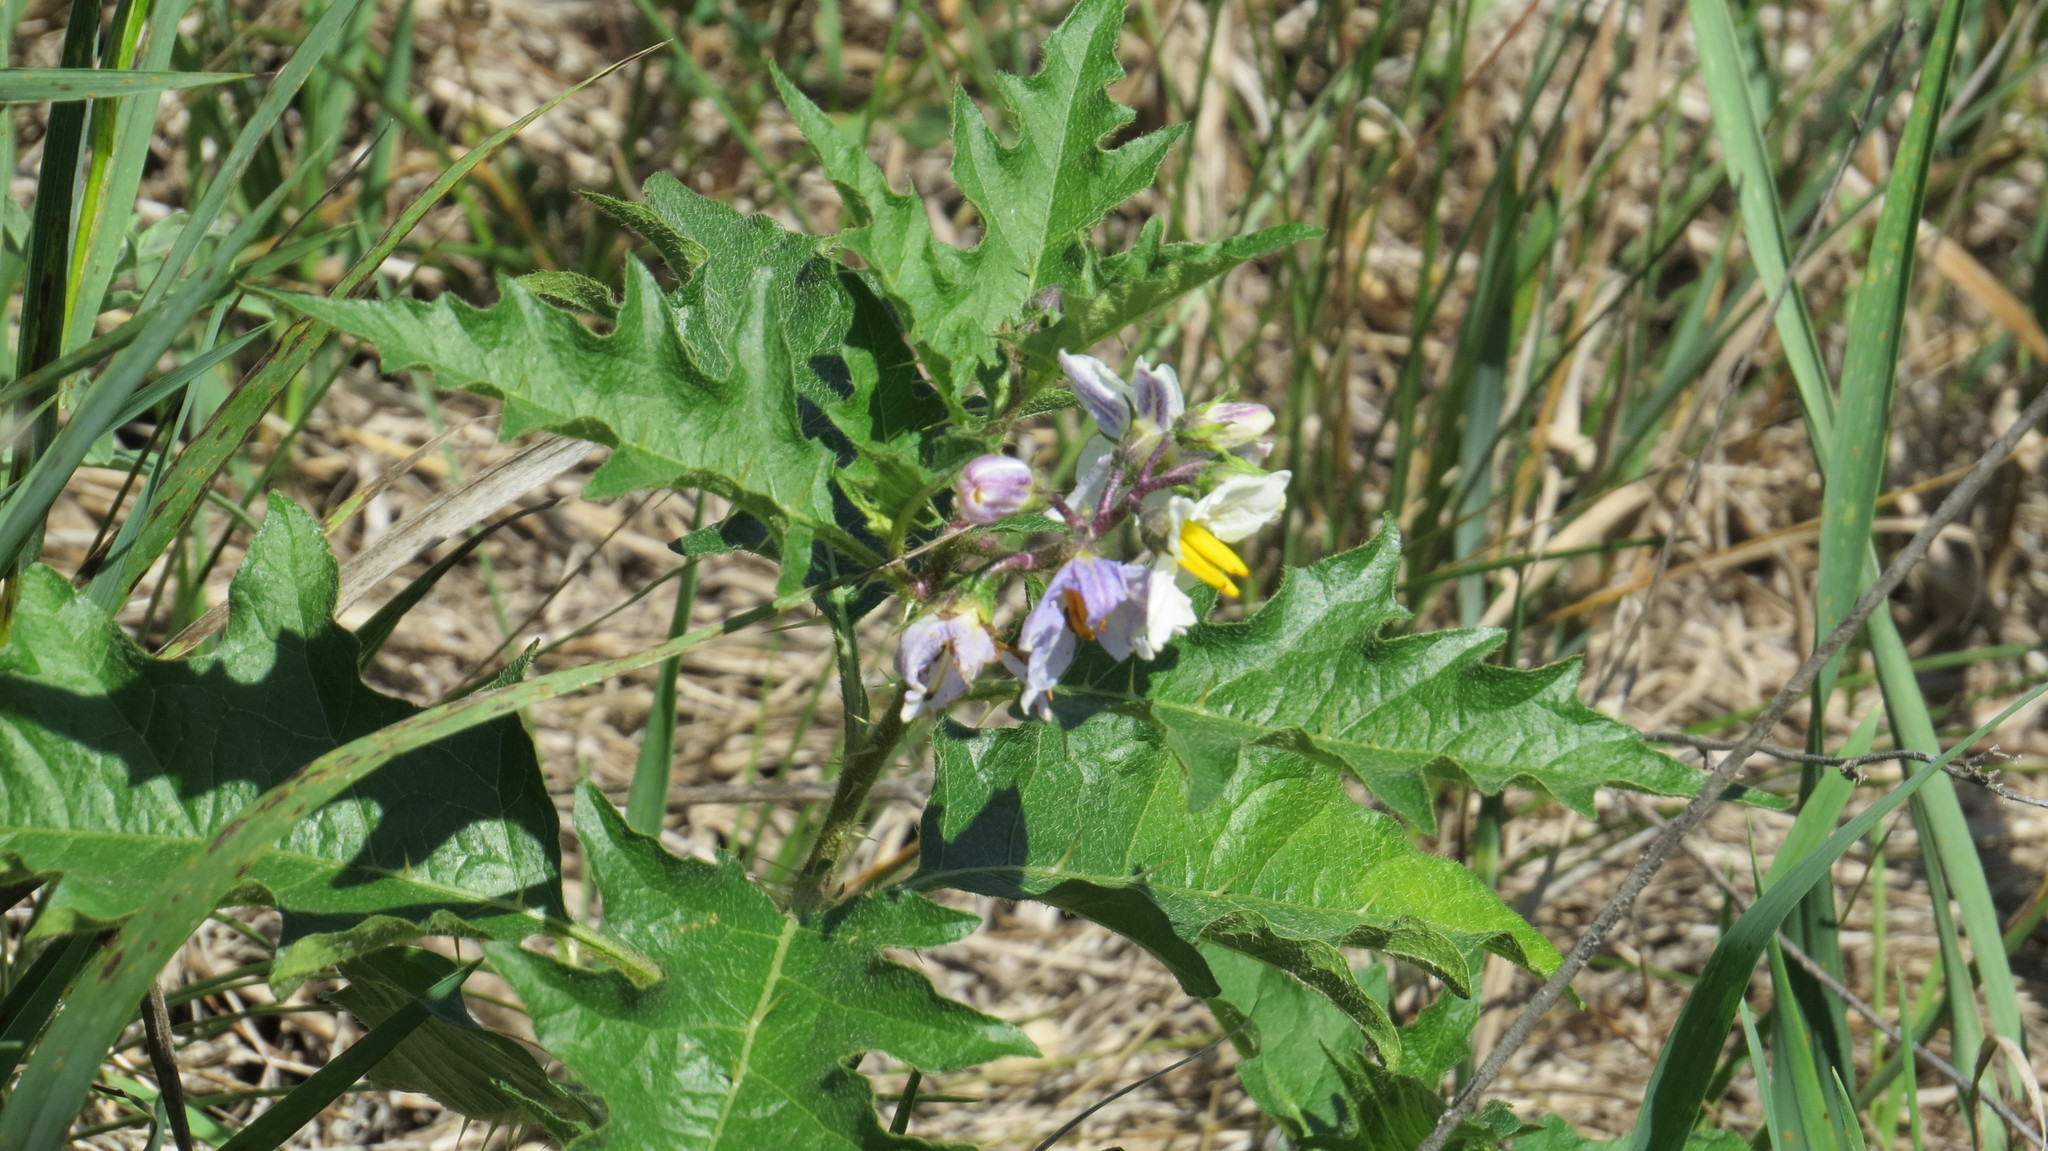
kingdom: Plantae
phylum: Tracheophyta
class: Magnoliopsida
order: Solanales
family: Solanaceae
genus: Solanum
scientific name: Solanum carolinense
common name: Horse-nettle
